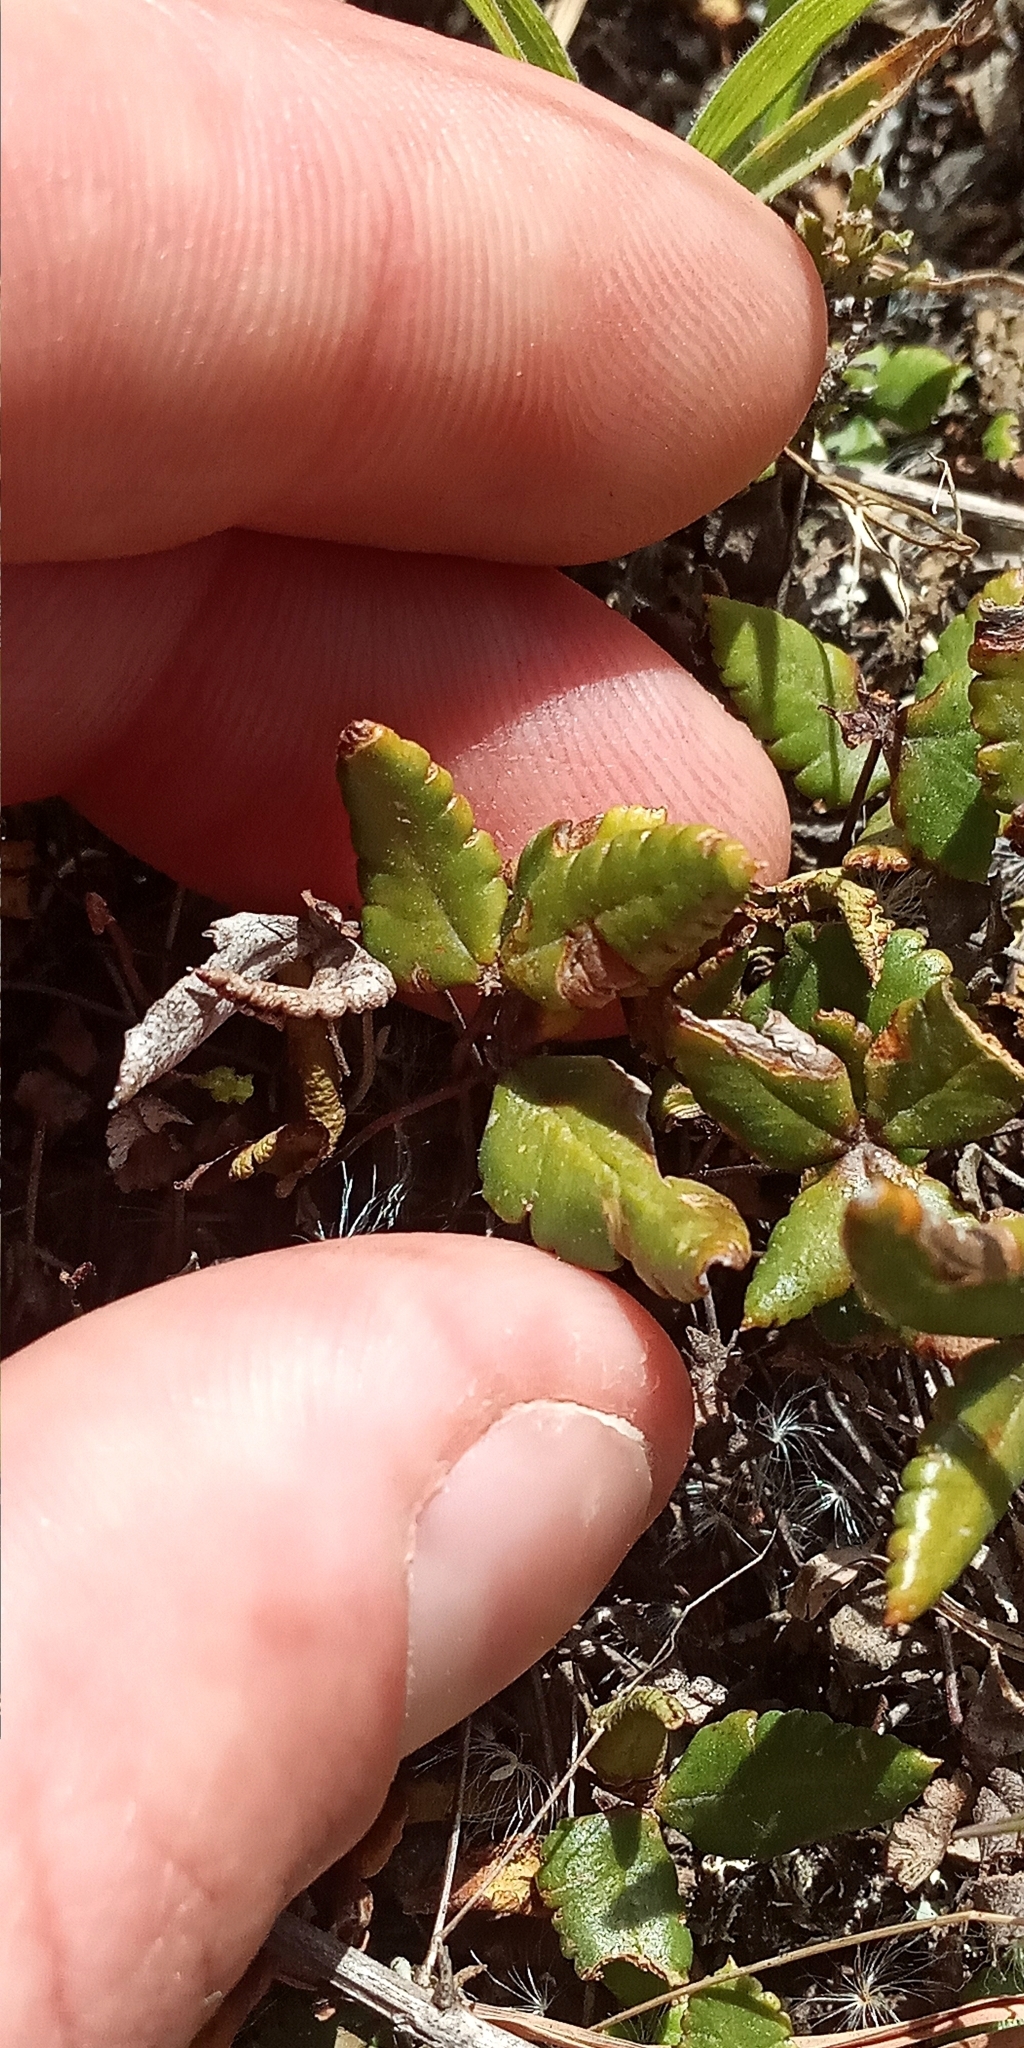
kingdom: Plantae
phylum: Tracheophyta
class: Polypodiopsida
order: Polypodiales
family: Pteridaceae
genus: Doryopteris
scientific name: Doryopteris triphylla
